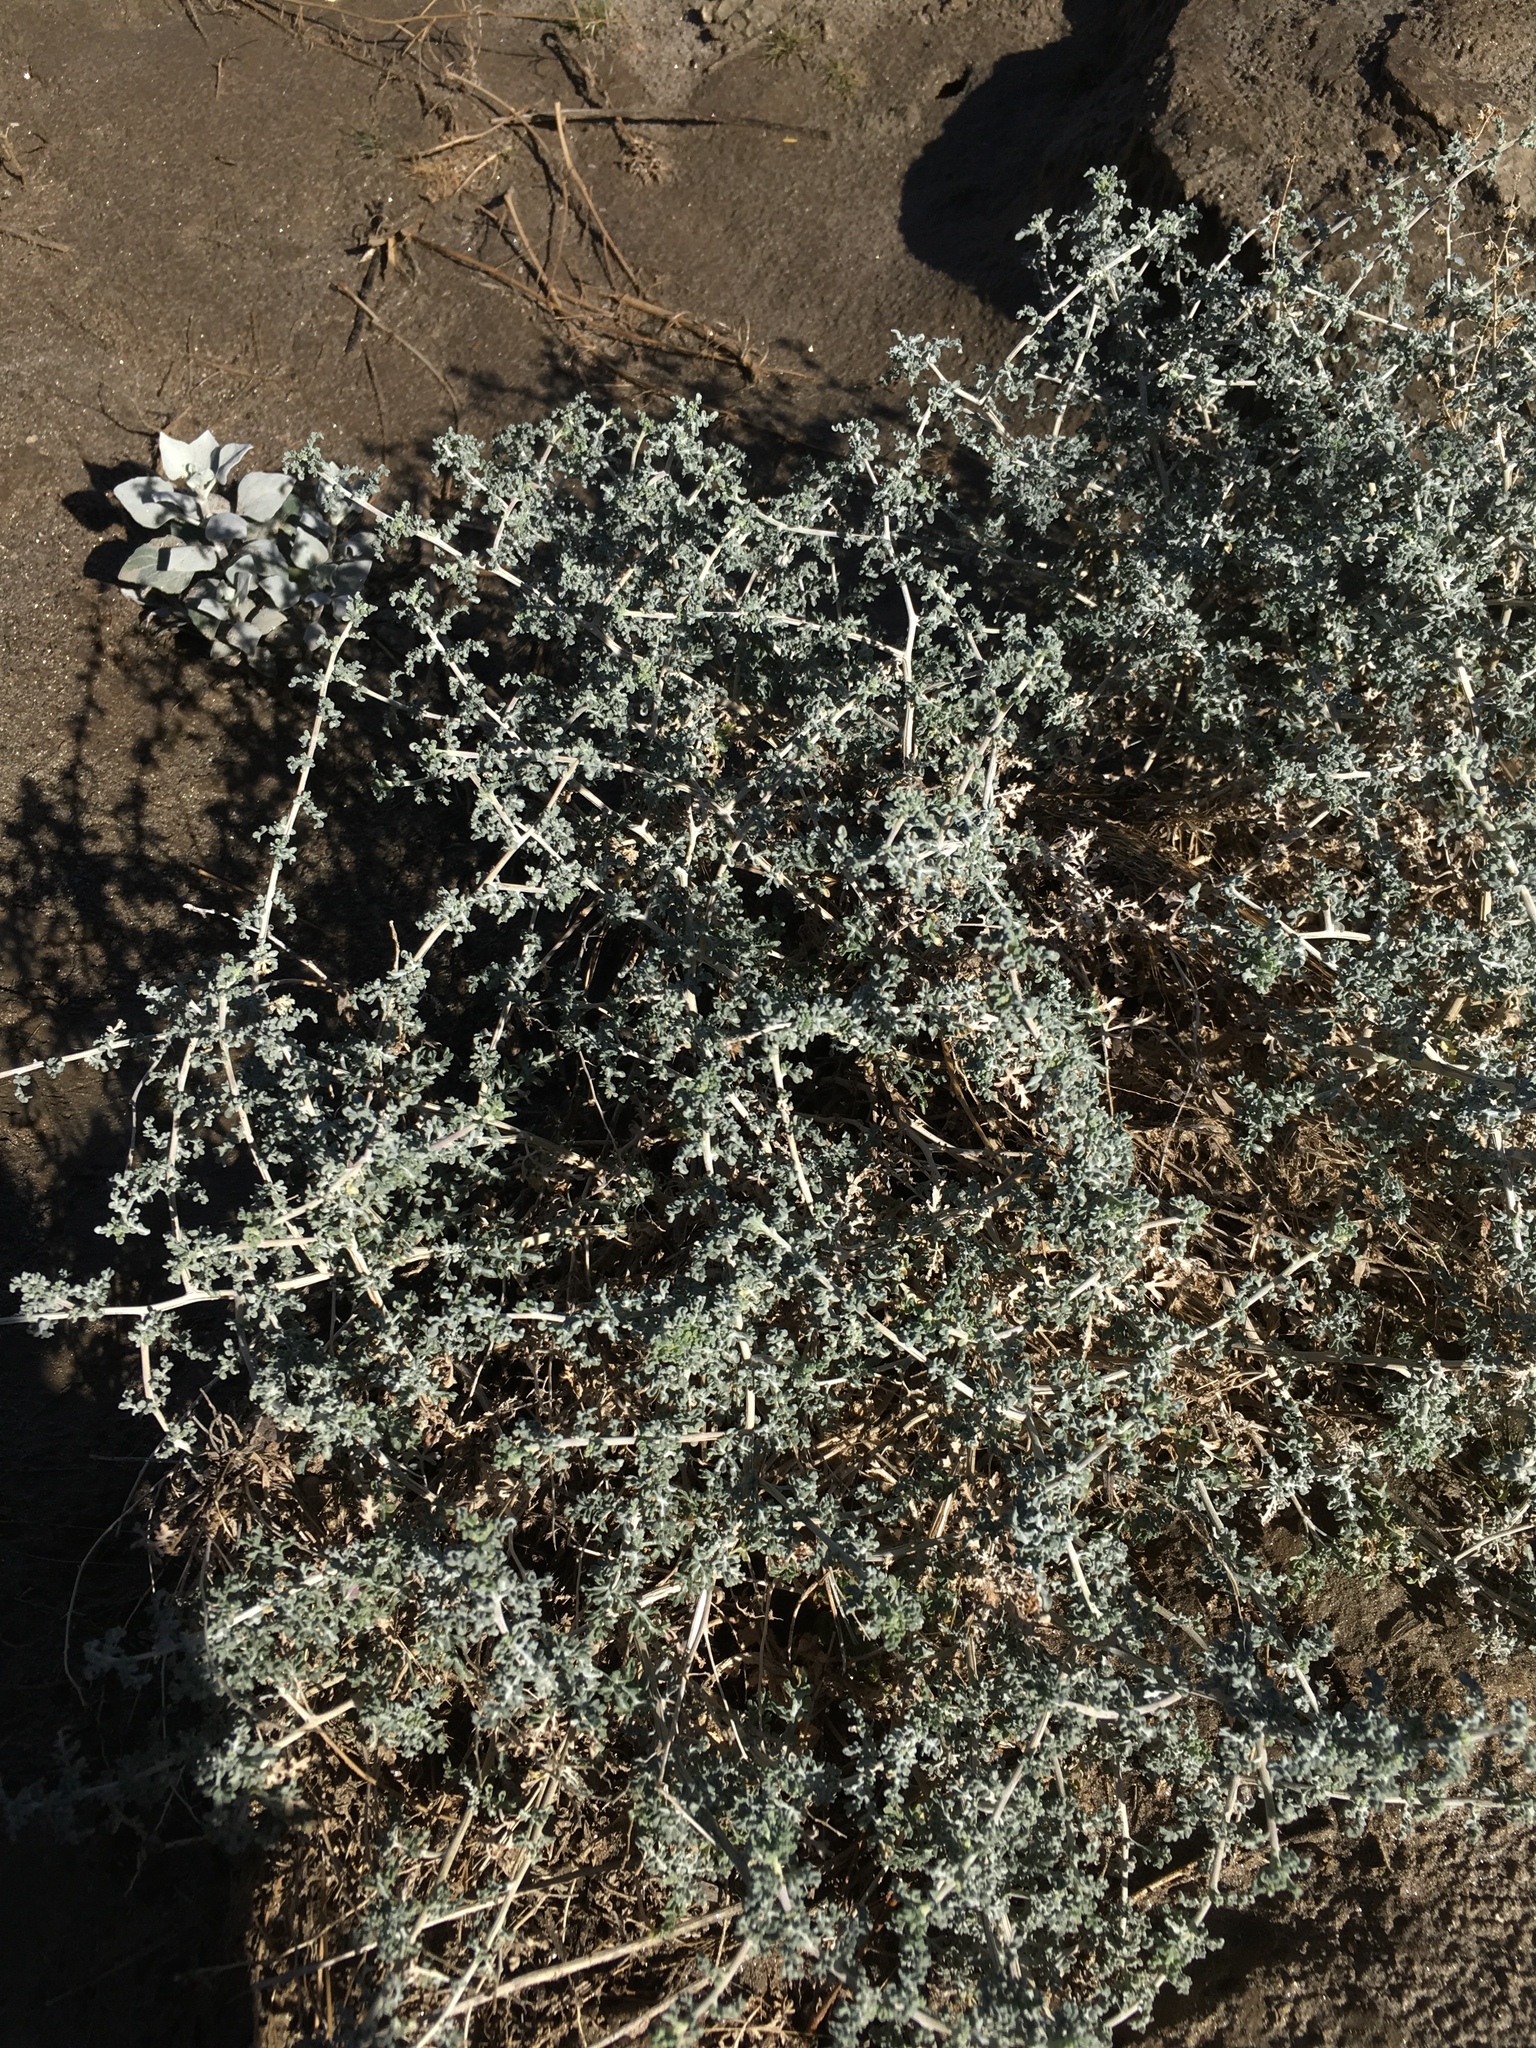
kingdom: Plantae
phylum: Tracheophyta
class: Magnoliopsida
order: Asterales
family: Asteraceae
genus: Ambrosia
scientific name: Ambrosia dumosa
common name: Bur-sage
